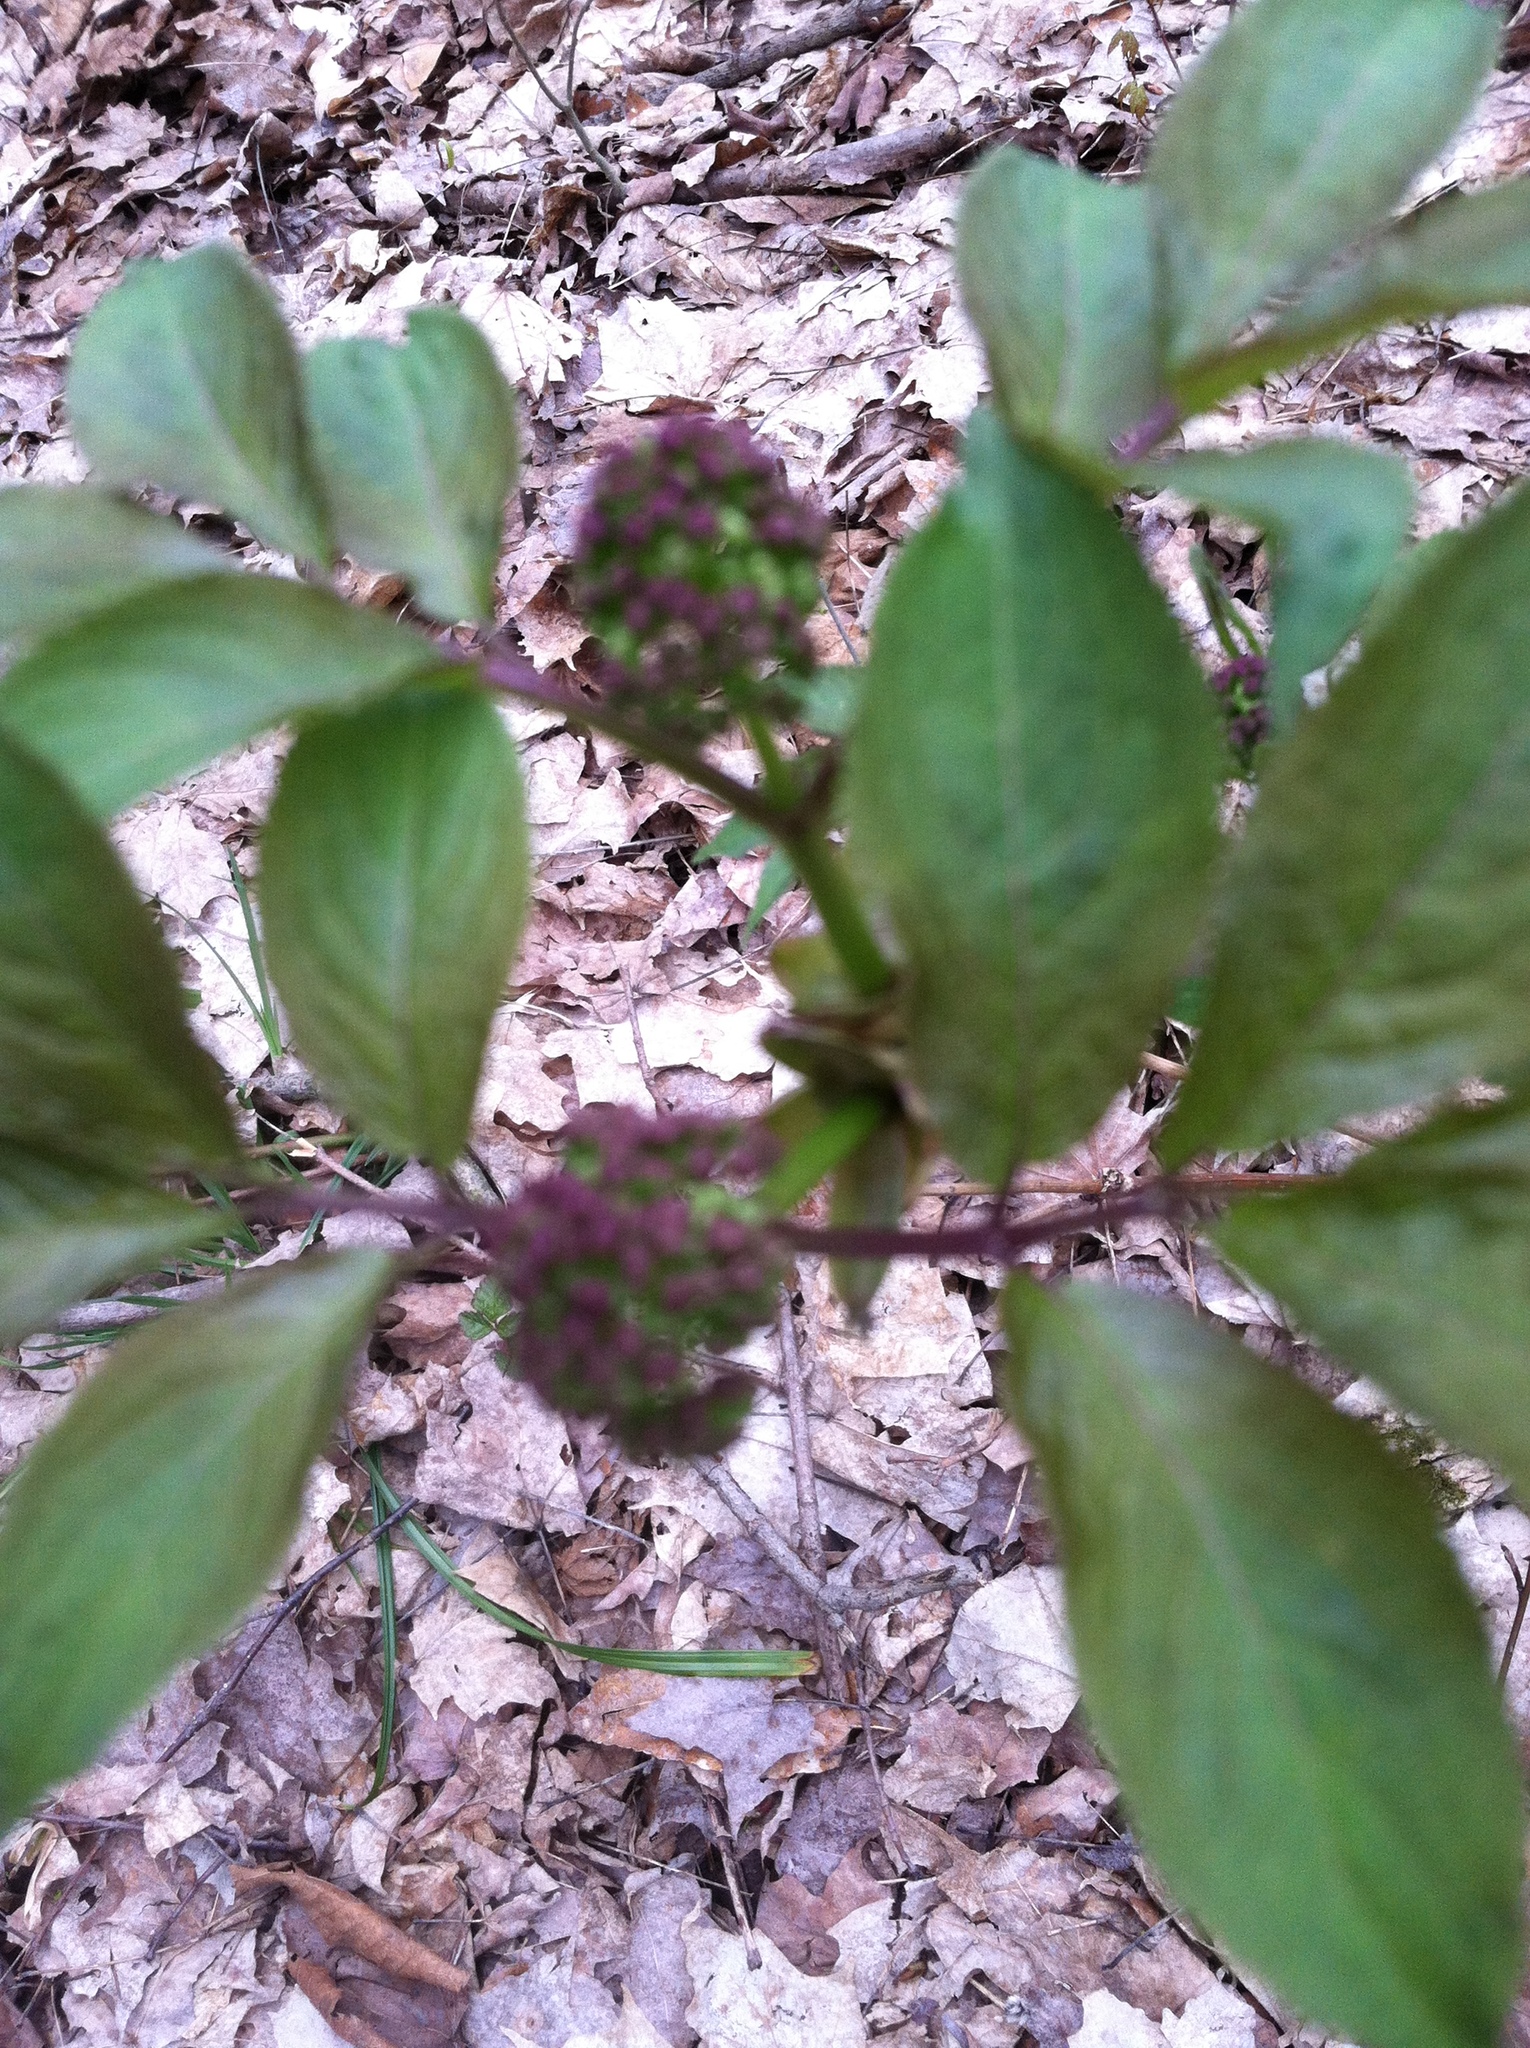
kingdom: Plantae
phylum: Tracheophyta
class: Magnoliopsida
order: Dipsacales
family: Viburnaceae
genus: Sambucus
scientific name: Sambucus racemosa
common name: Red-berried elder
